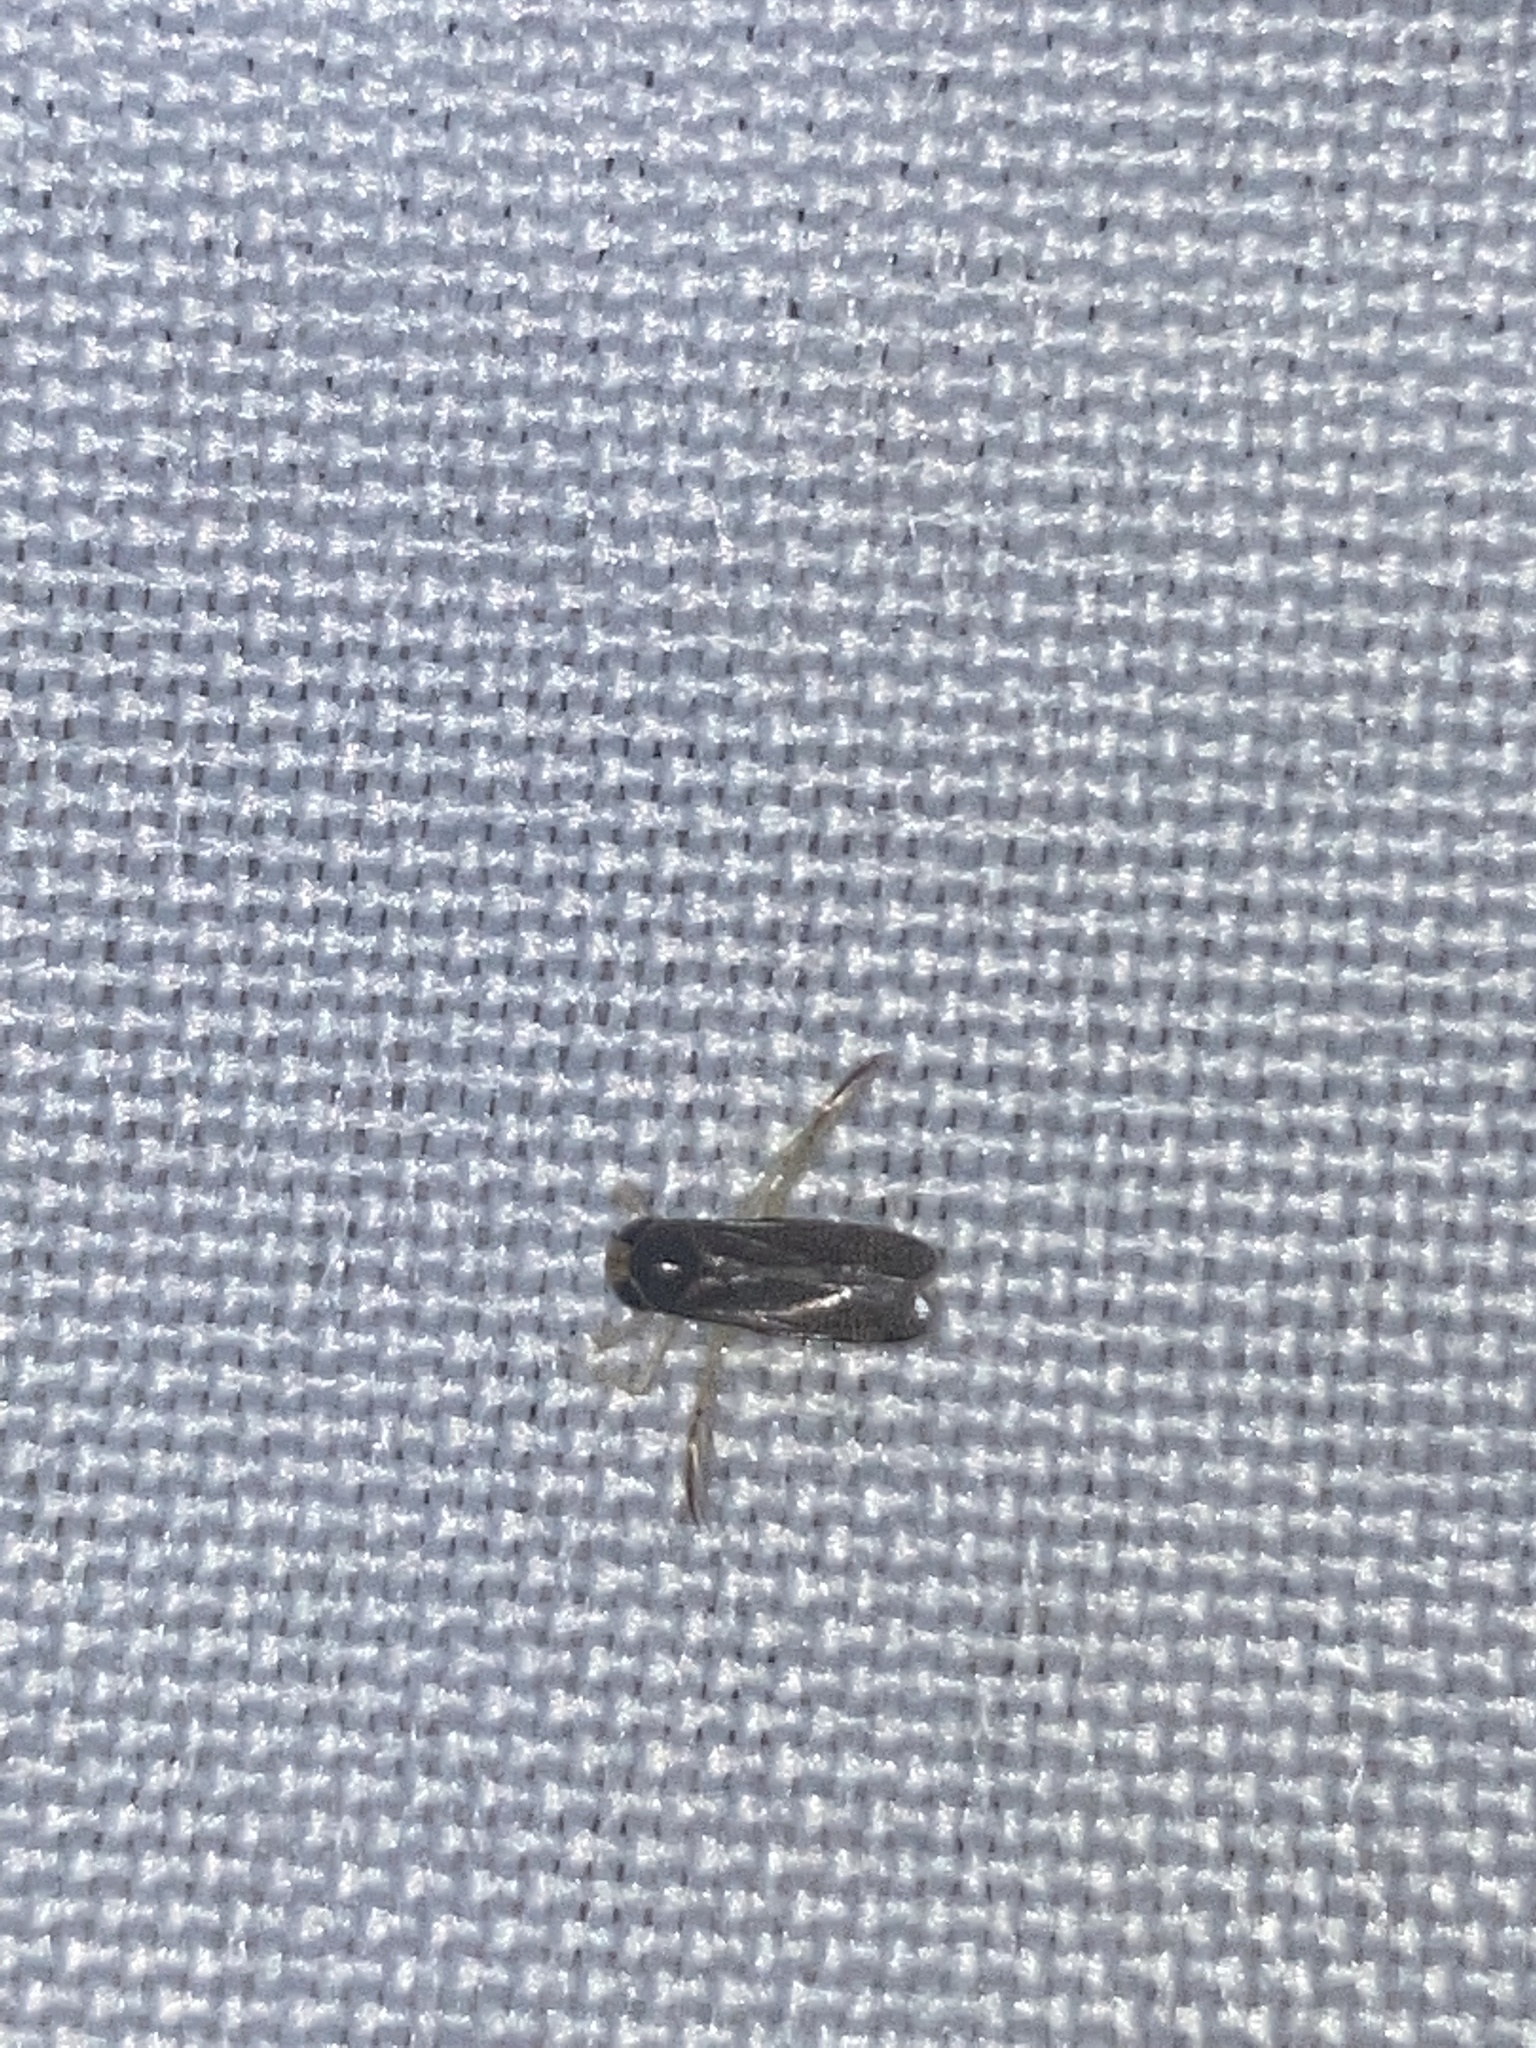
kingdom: Animalia
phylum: Arthropoda
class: Insecta
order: Hemiptera
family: Corixidae
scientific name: Corixidae
